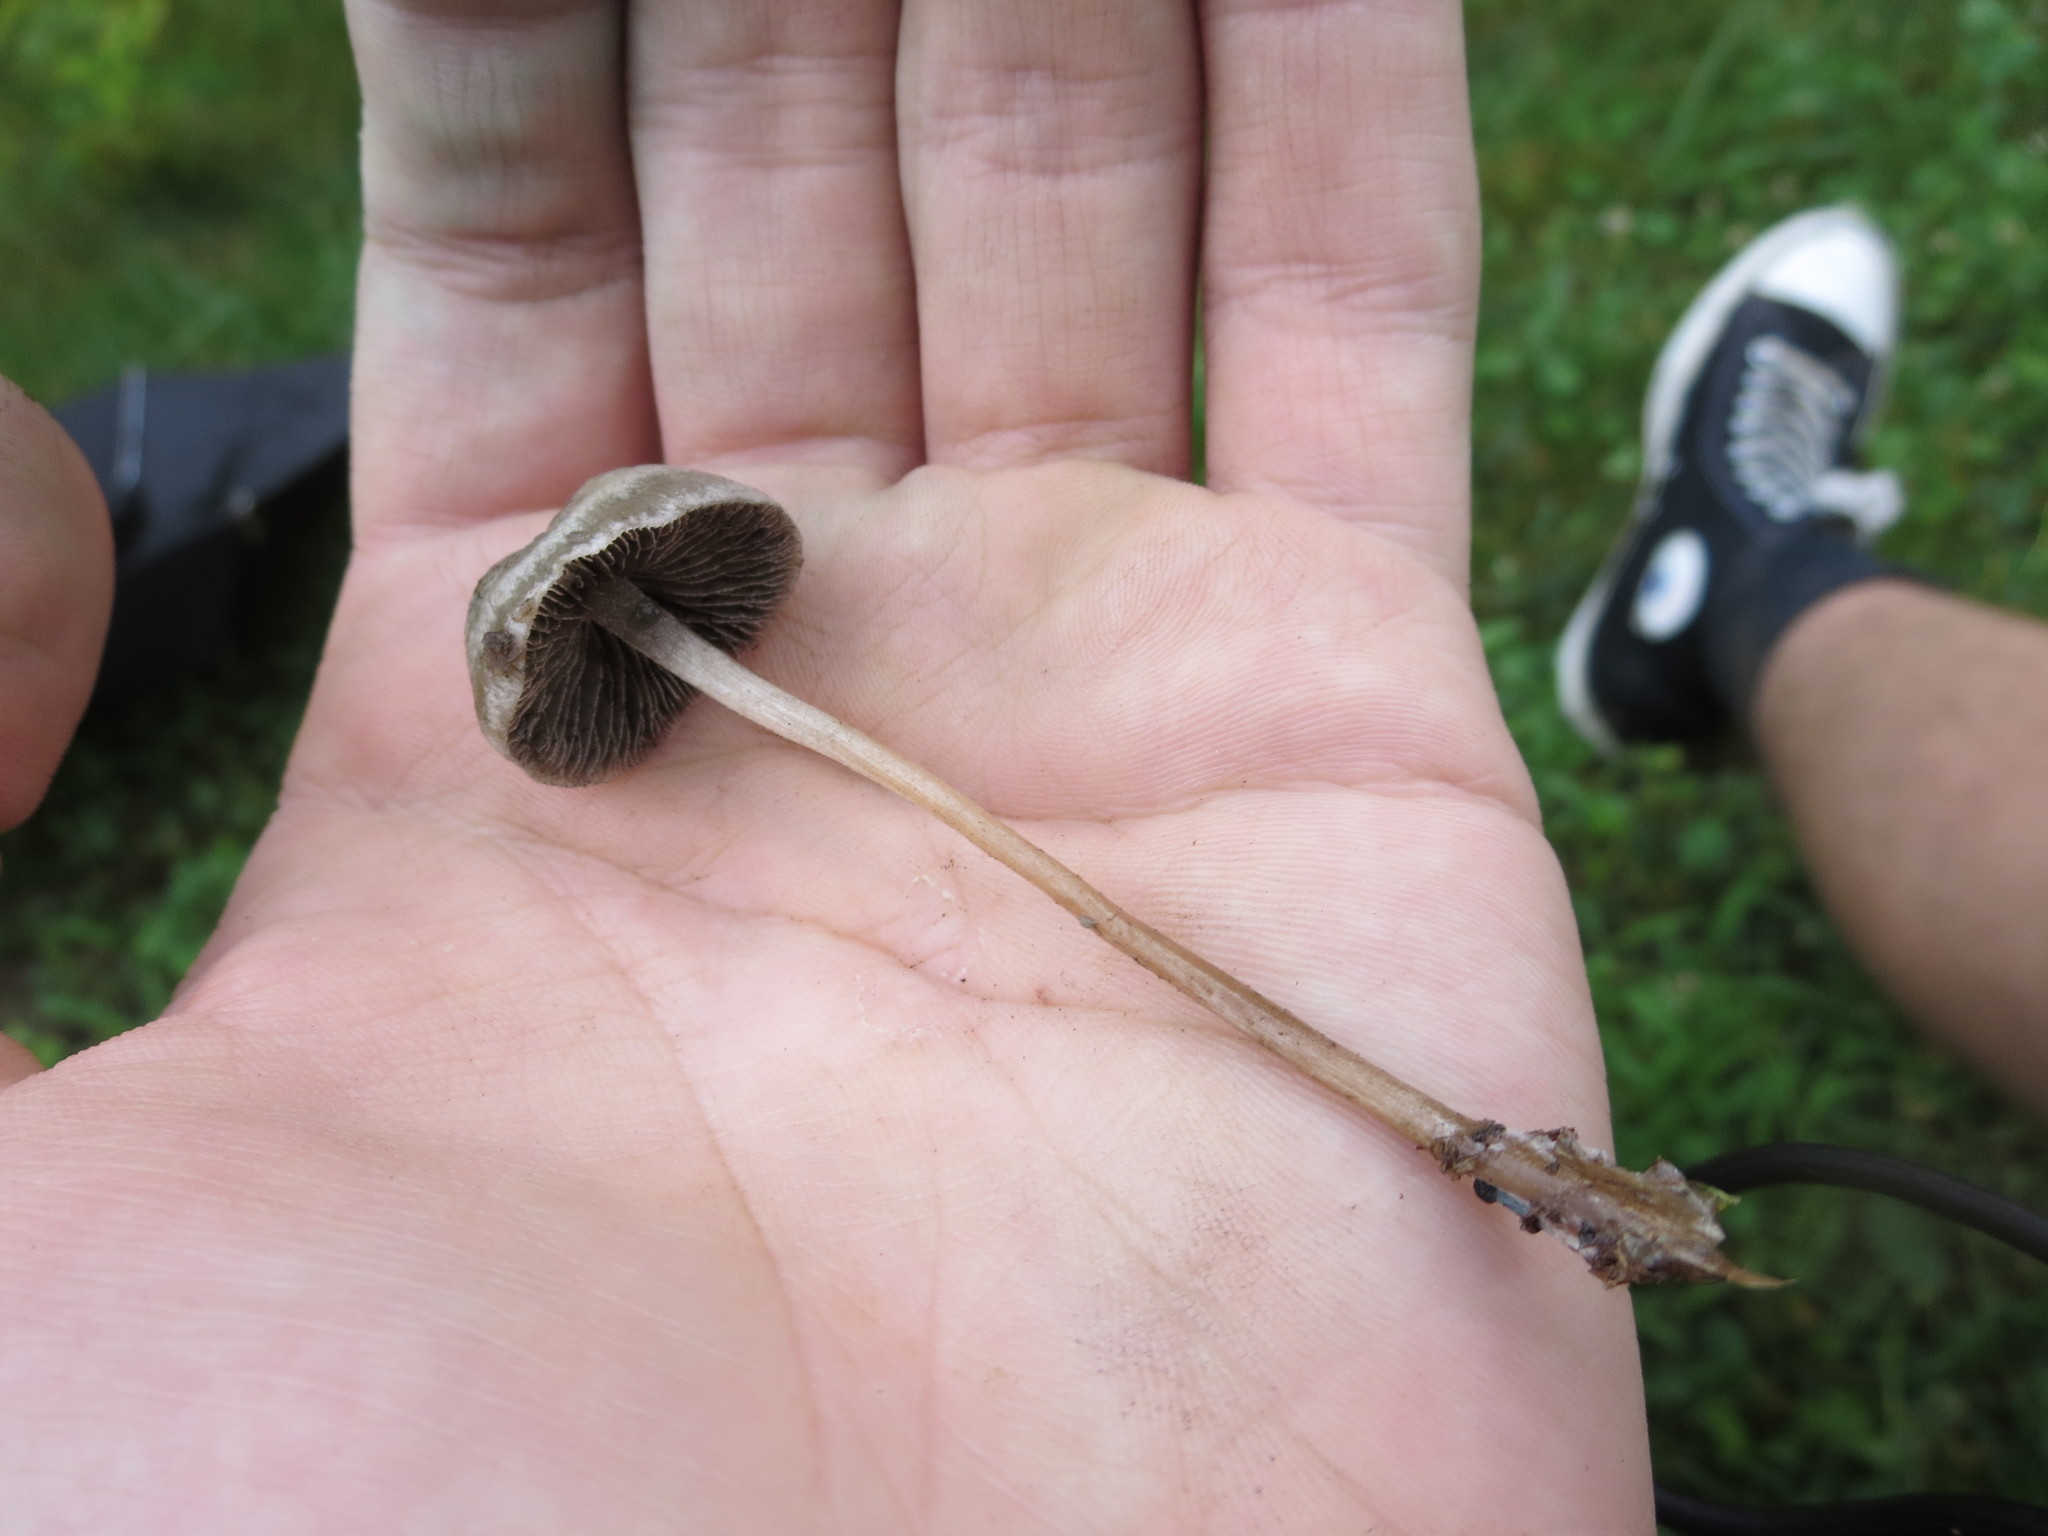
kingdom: Fungi
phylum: Basidiomycota
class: Agaricomycetes
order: Agaricales
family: Bolbitiaceae
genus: Panaeolus
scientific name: Panaeolus bisporus
